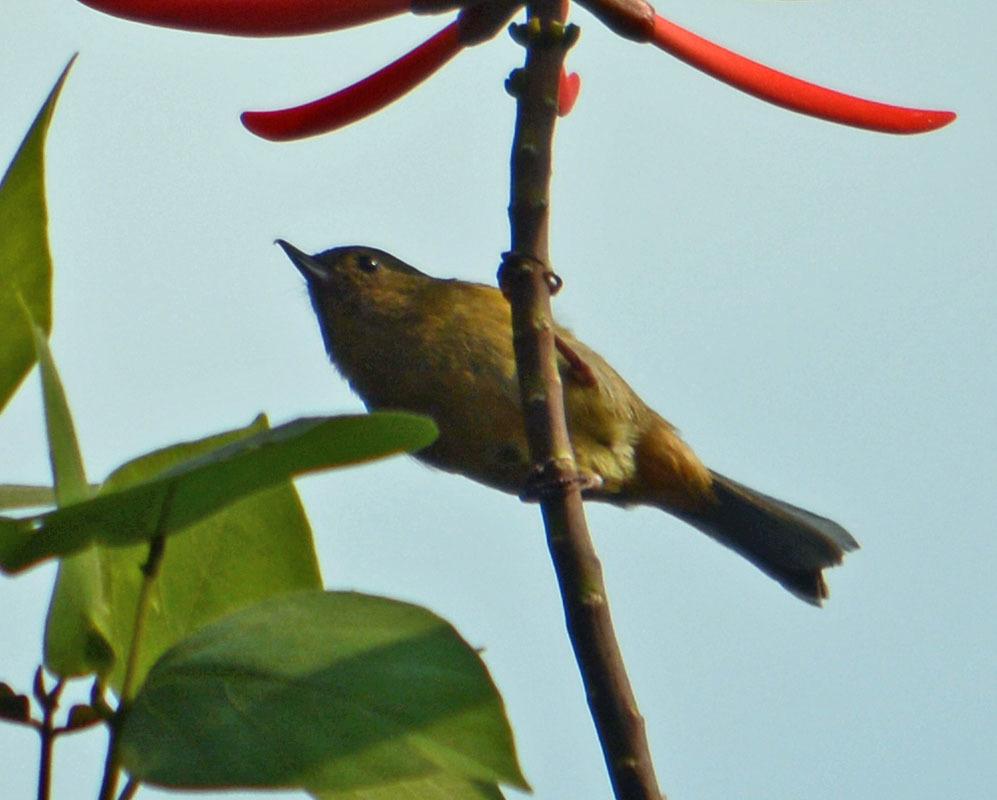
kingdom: Animalia
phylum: Chordata
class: Aves
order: Passeriformes
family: Thraupidae
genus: Diglossa
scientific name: Diglossa baritula
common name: Cinnamon-bellied flowerpiercer
